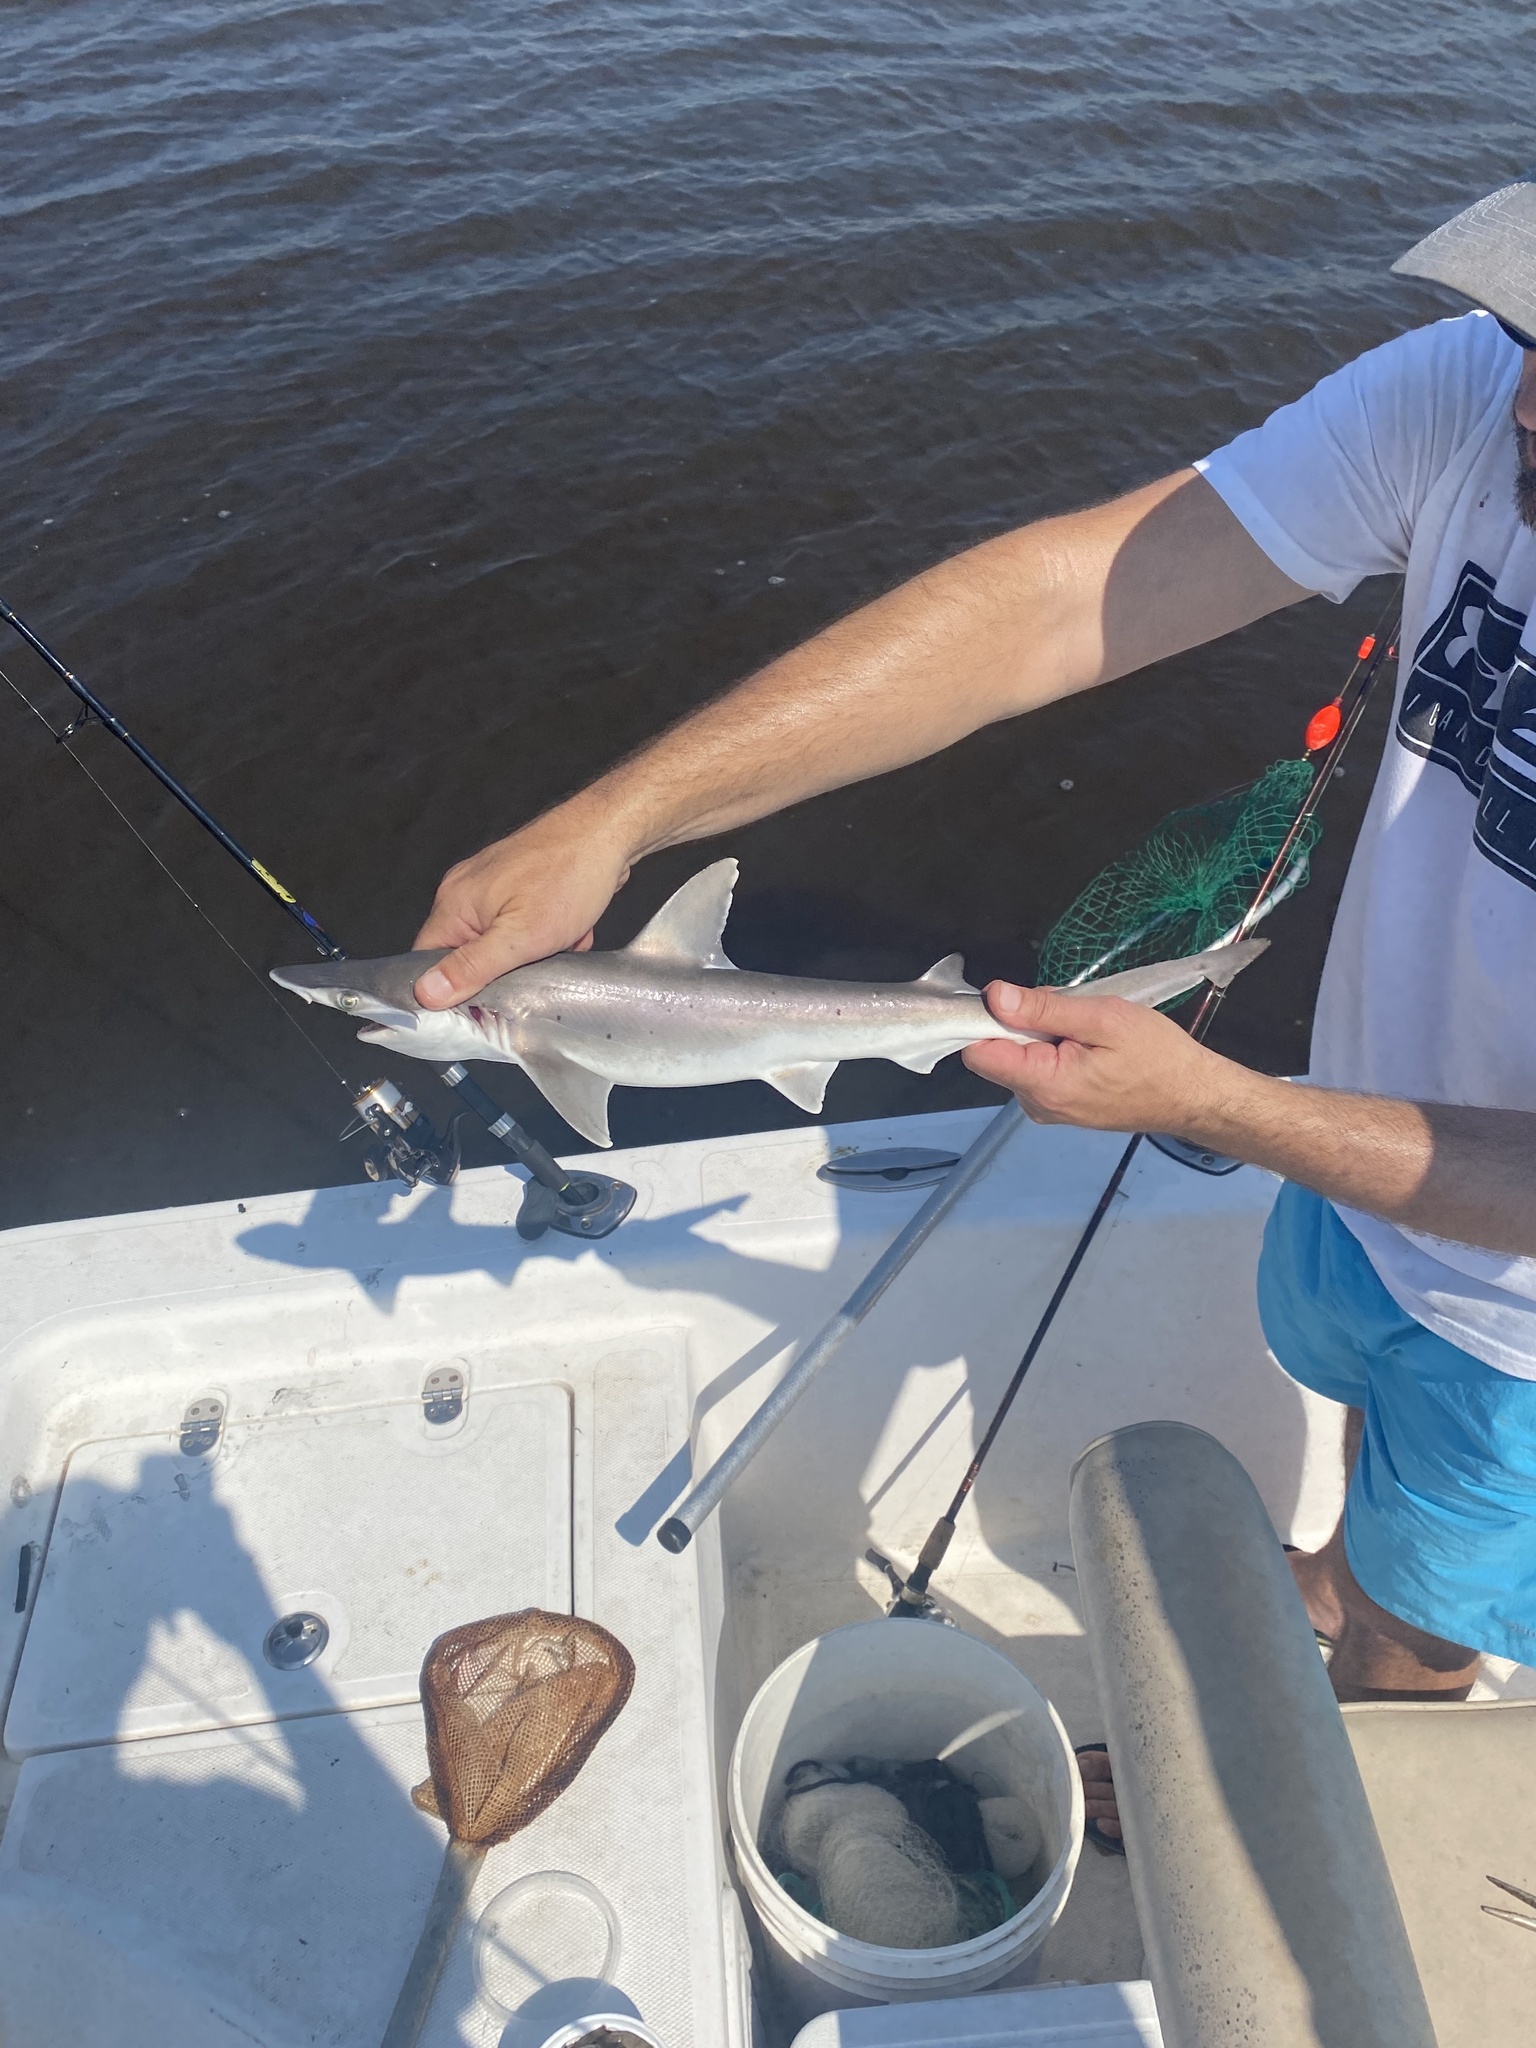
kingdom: Animalia
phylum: Chordata
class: Elasmobranchii
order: Carcharhiniformes
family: Sphyrnidae
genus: Sphyrna
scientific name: Sphyrna tiburo
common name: Bonnethead
